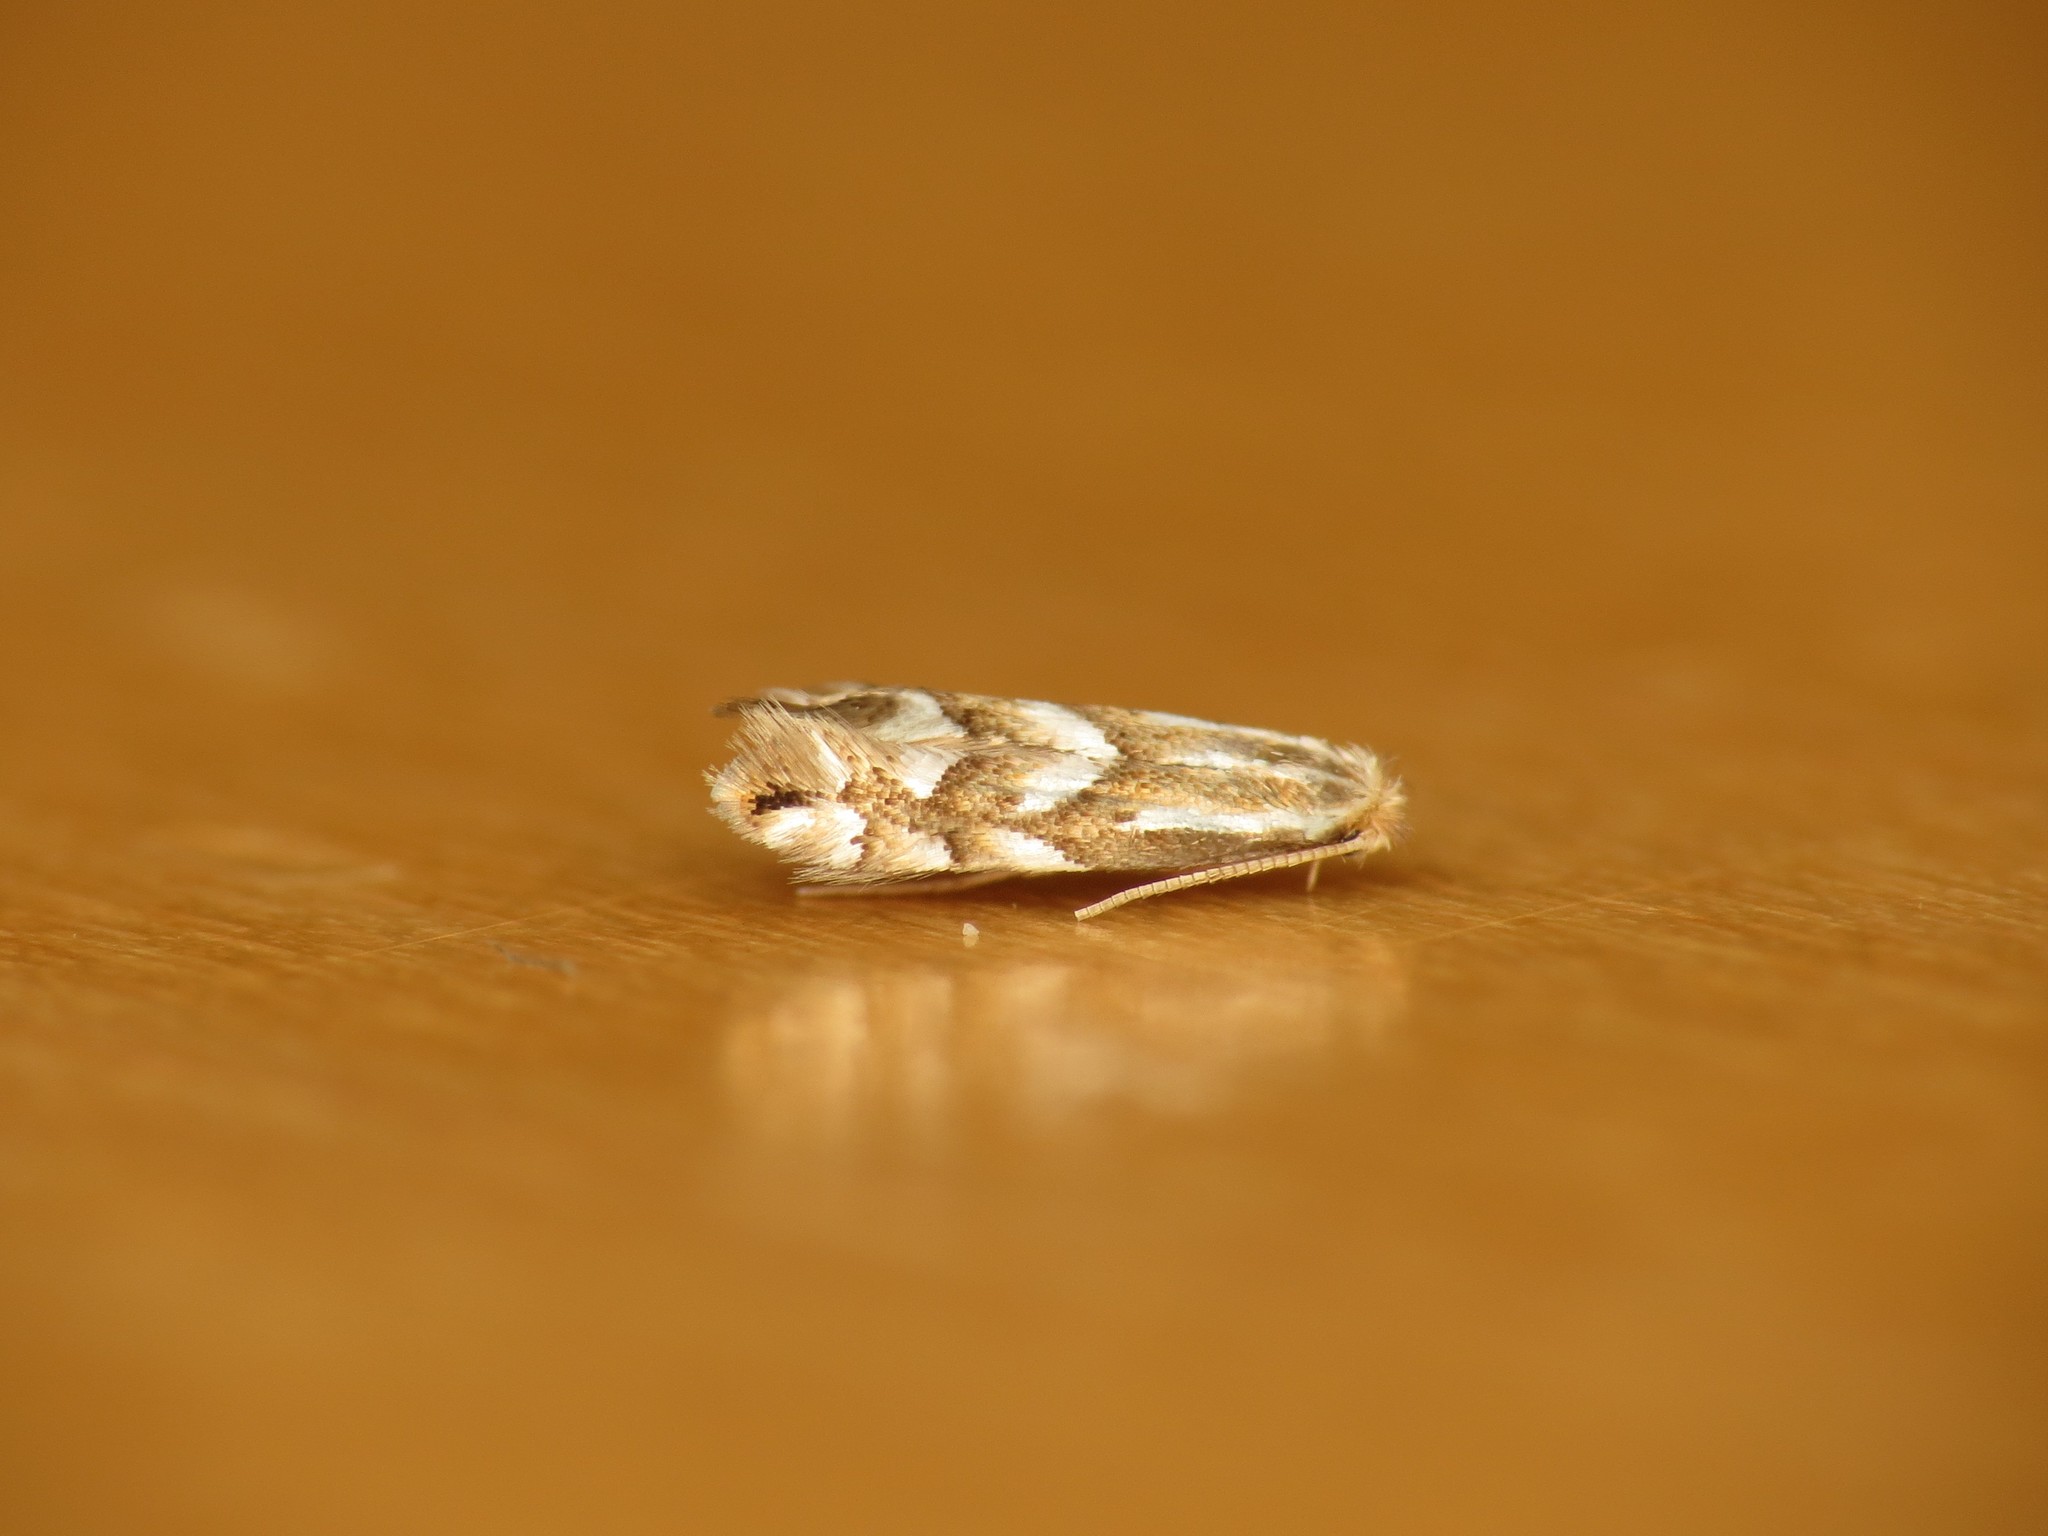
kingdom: Animalia
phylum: Arthropoda
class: Insecta
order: Lepidoptera
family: Gracillariidae
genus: Phyllonorycter
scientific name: Phyllonorycter coryli
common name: Nut-leaf blister moth
